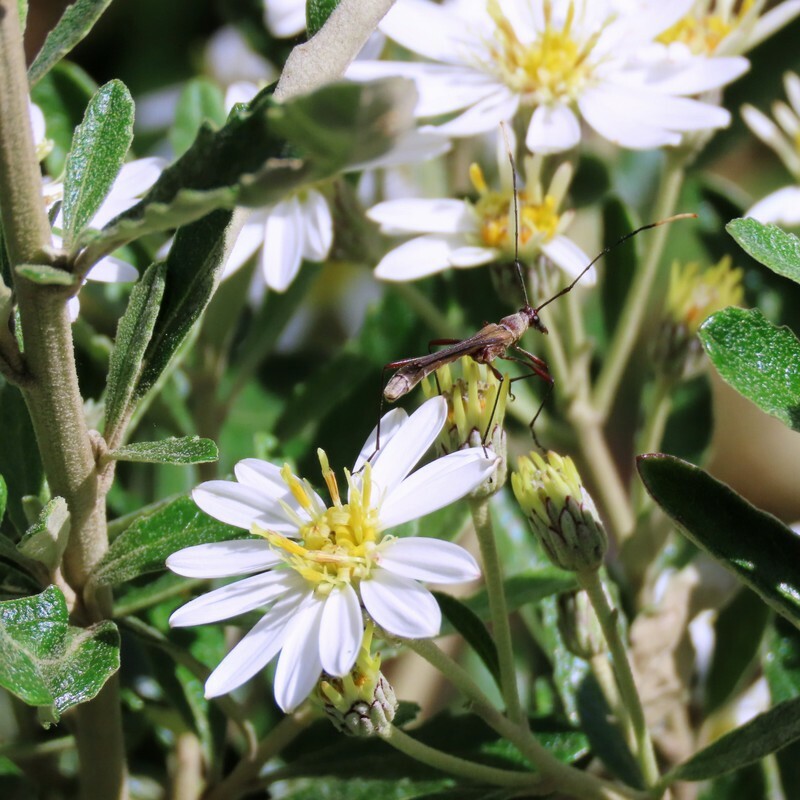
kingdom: Animalia
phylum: Arthropoda
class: Insecta
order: Coleoptera
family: Cerambycidae
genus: Enchoptera
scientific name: Enchoptera apicalis
